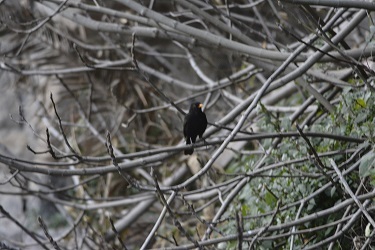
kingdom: Animalia
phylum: Chordata
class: Aves
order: Passeriformes
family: Turdidae
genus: Turdus
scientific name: Turdus merula
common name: Common blackbird
